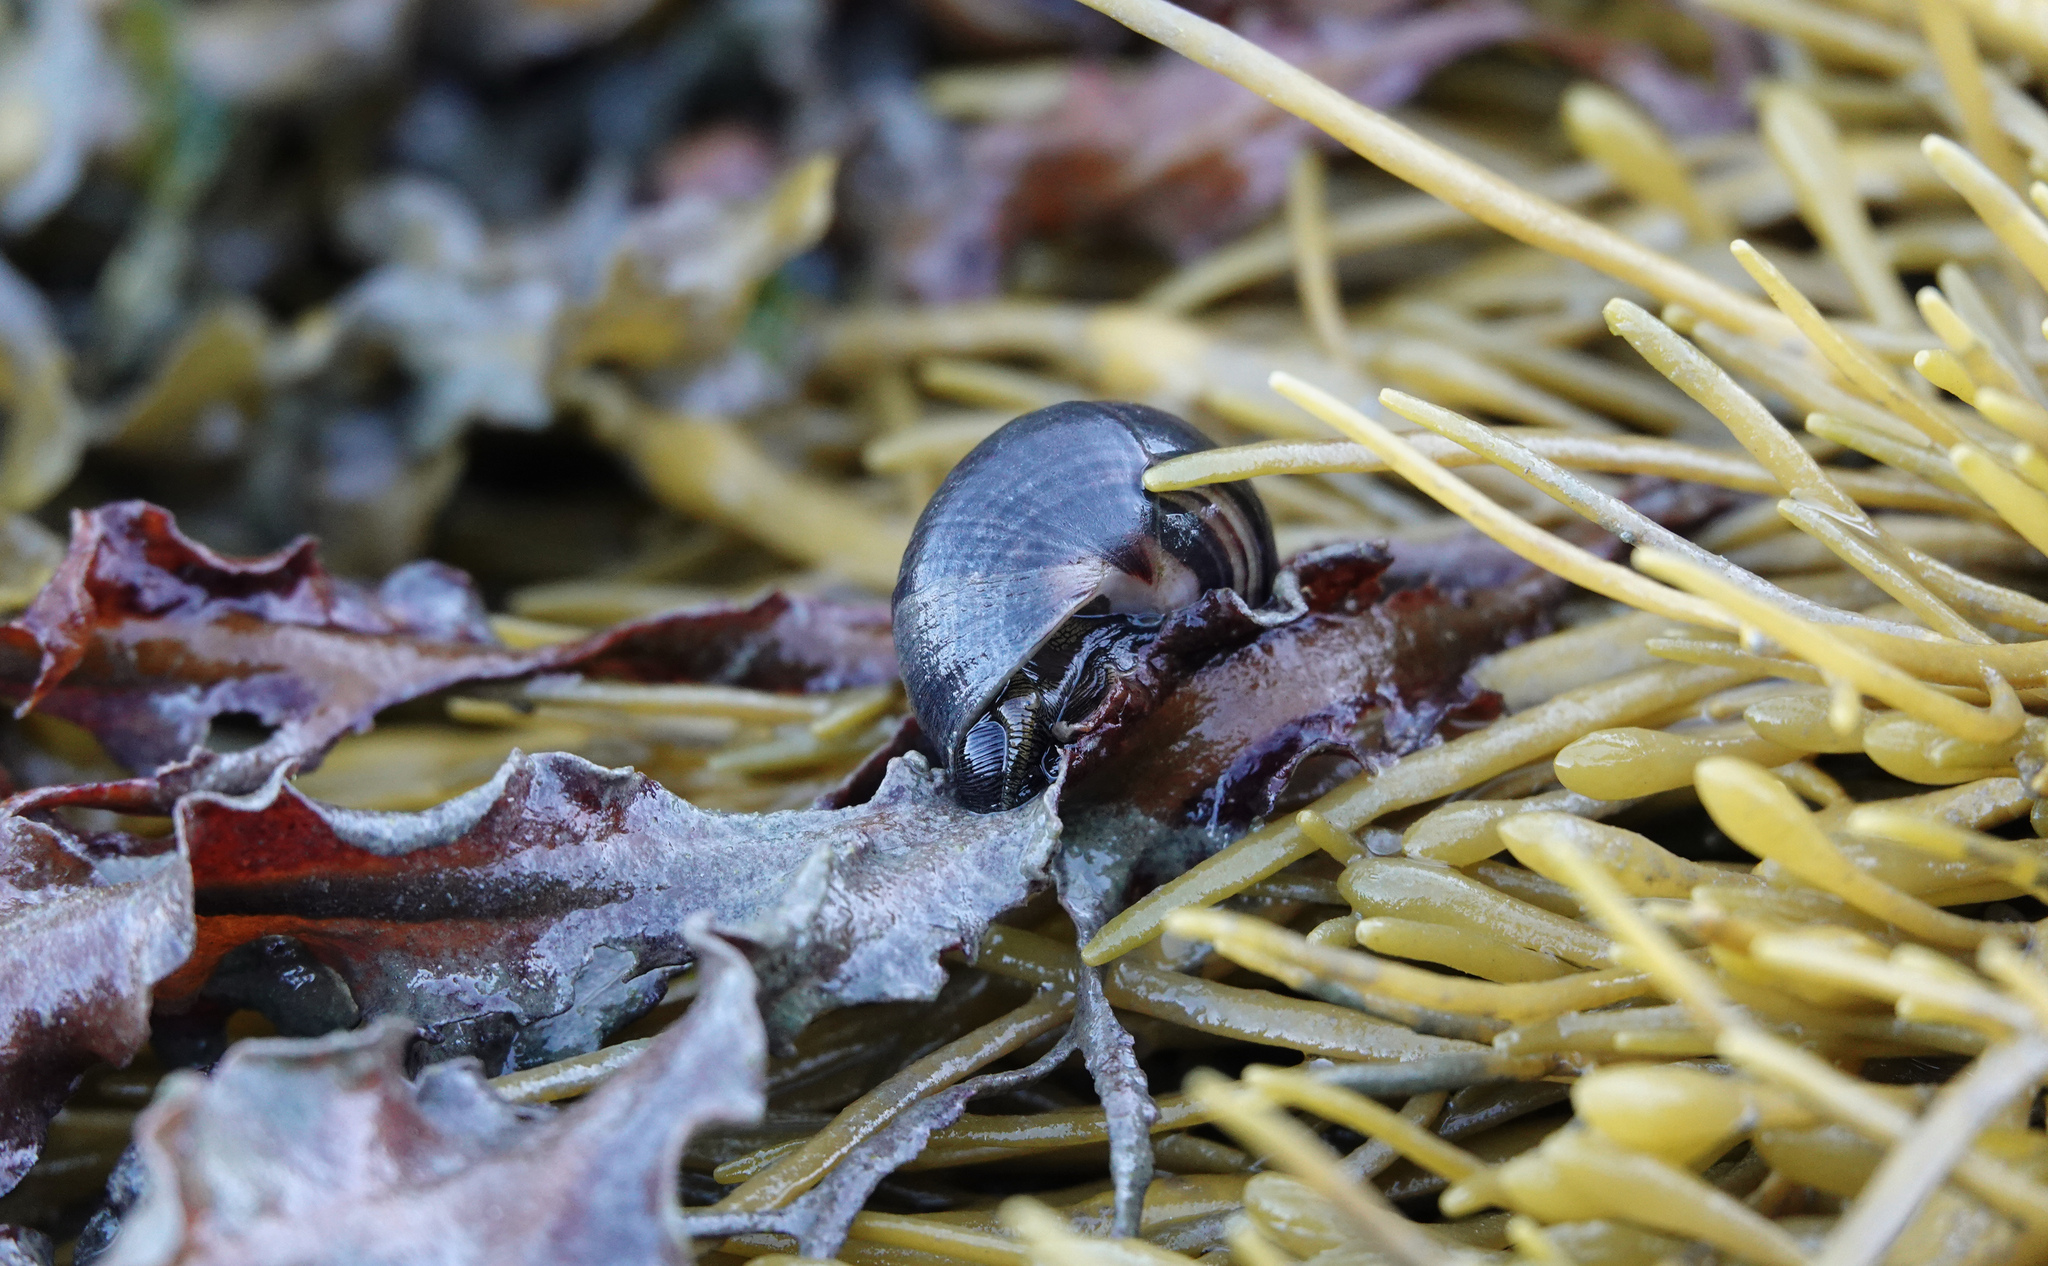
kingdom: Animalia
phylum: Mollusca
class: Gastropoda
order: Littorinimorpha
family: Littorinidae
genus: Littorina
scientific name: Littorina littorea
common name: Common periwinkle
